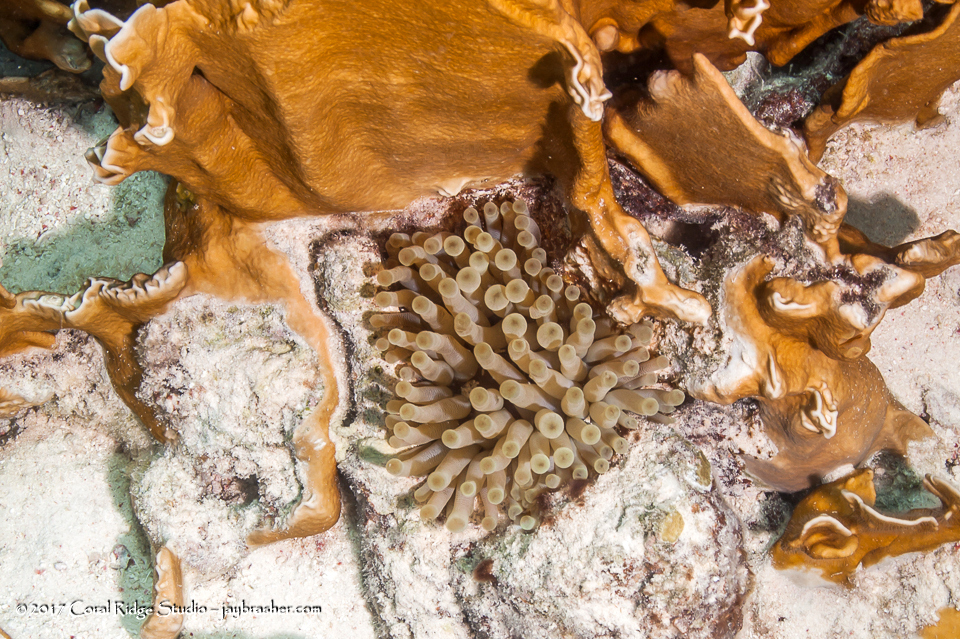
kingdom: Animalia
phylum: Cnidaria
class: Anthozoa
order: Actiniaria
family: Actiniidae
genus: Condylactis
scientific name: Condylactis gigantea
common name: Giant caribbean anemone
